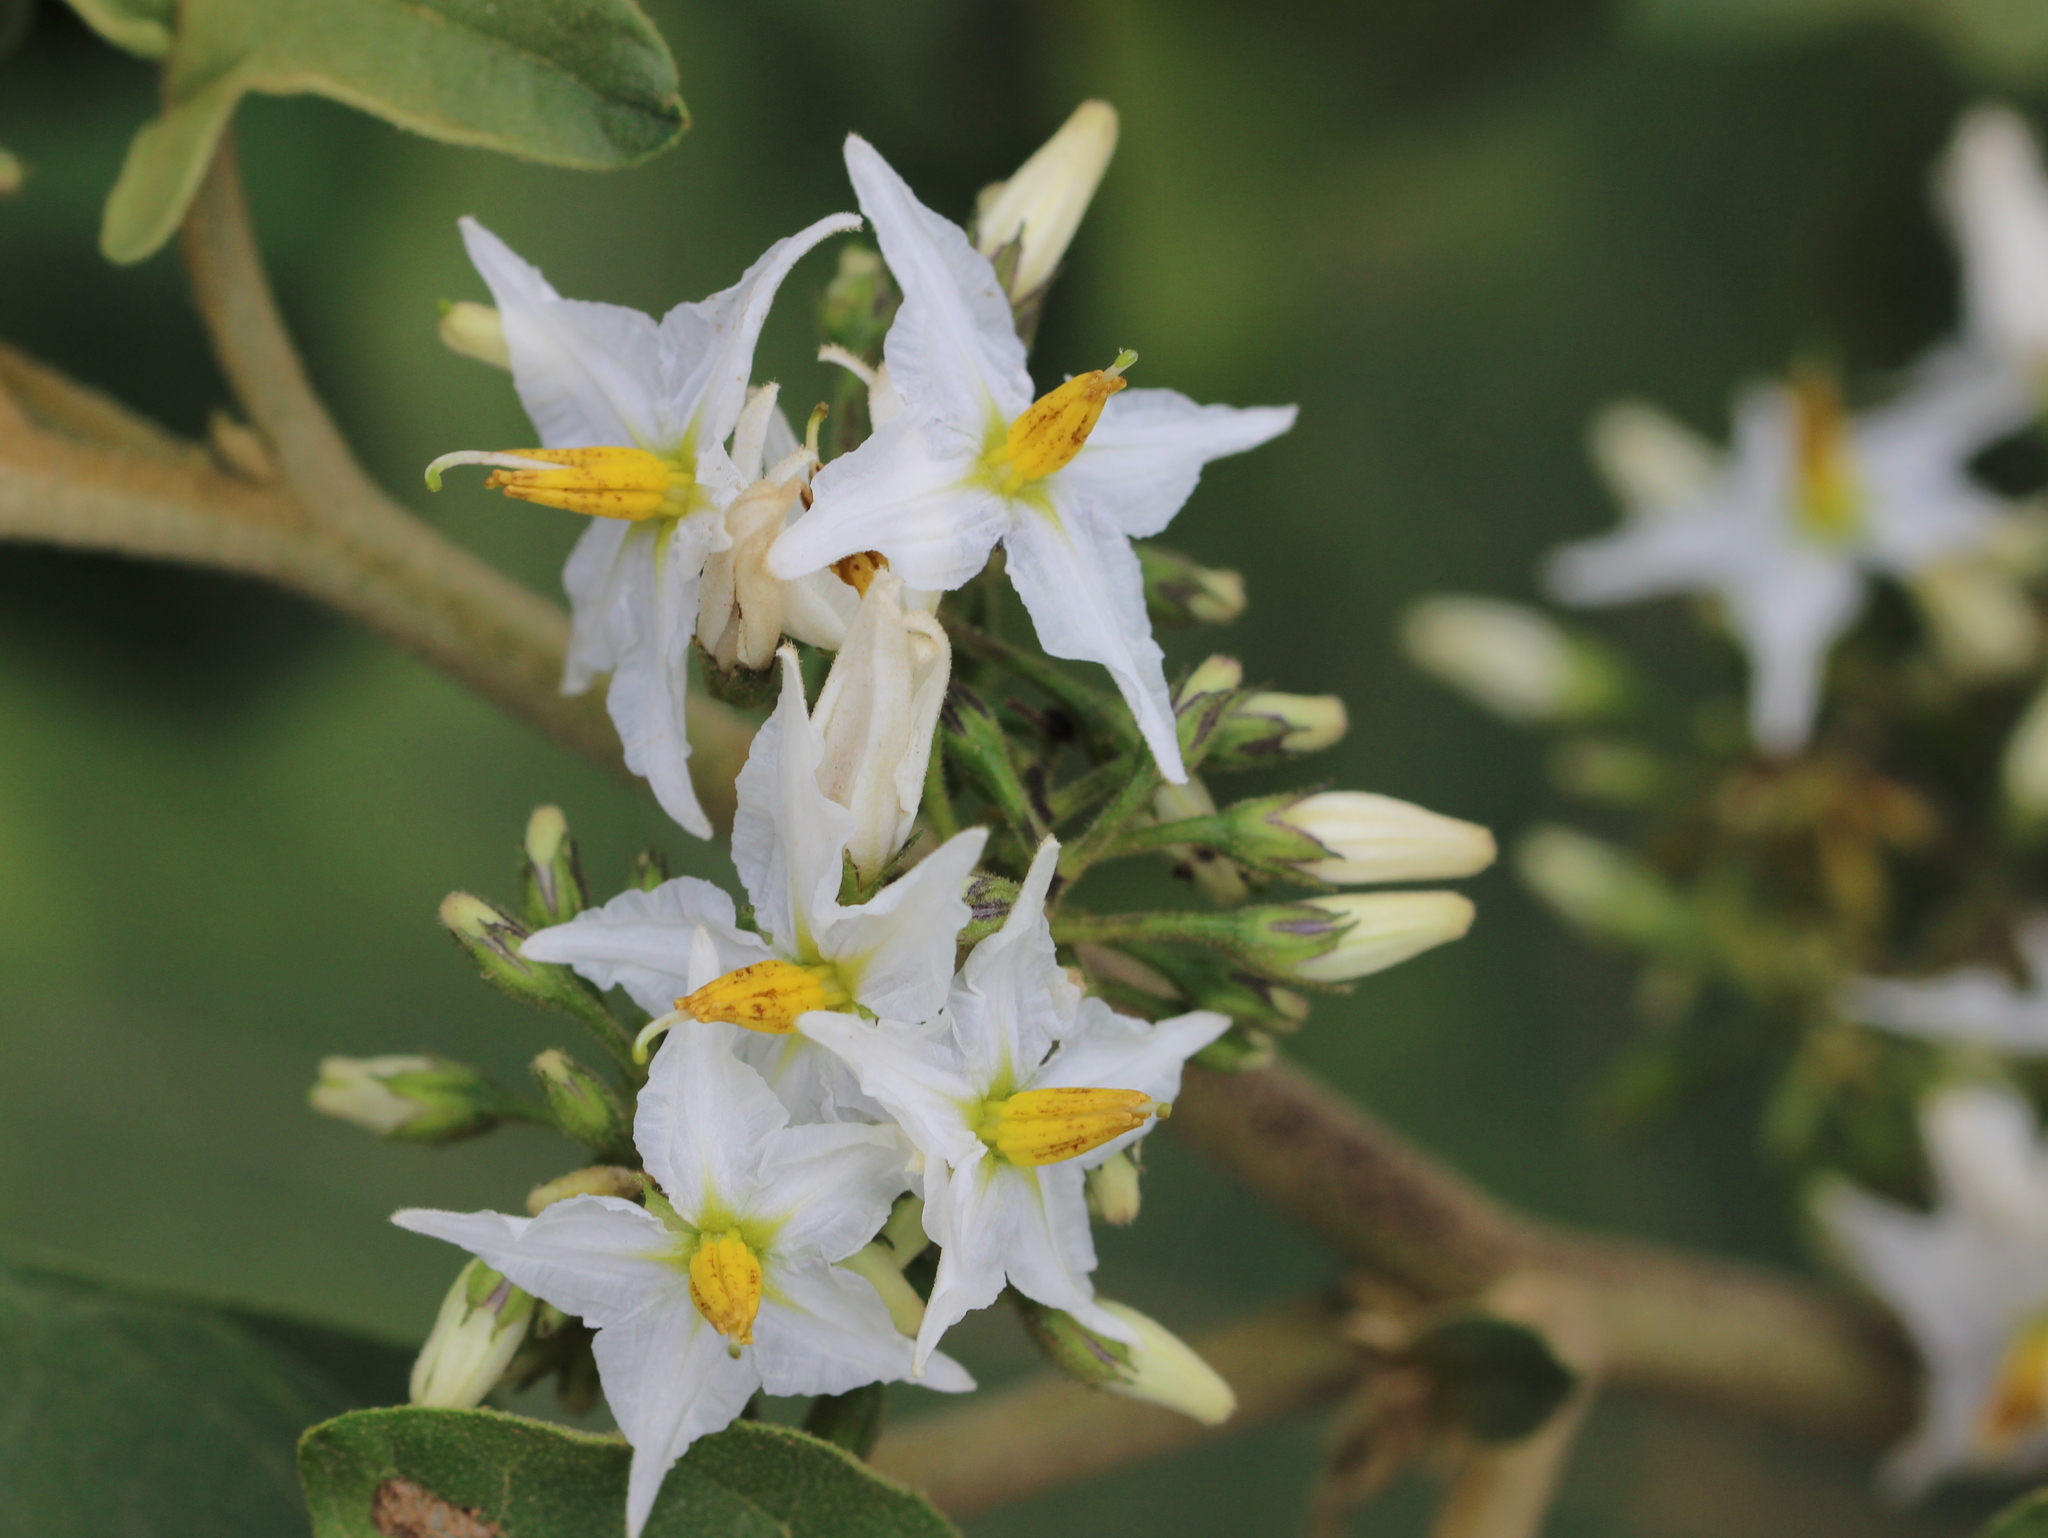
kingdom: Plantae
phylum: Tracheophyta
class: Magnoliopsida
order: Solanales
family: Solanaceae
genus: Solanum
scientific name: Solanum torvum
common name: Turkey berry
